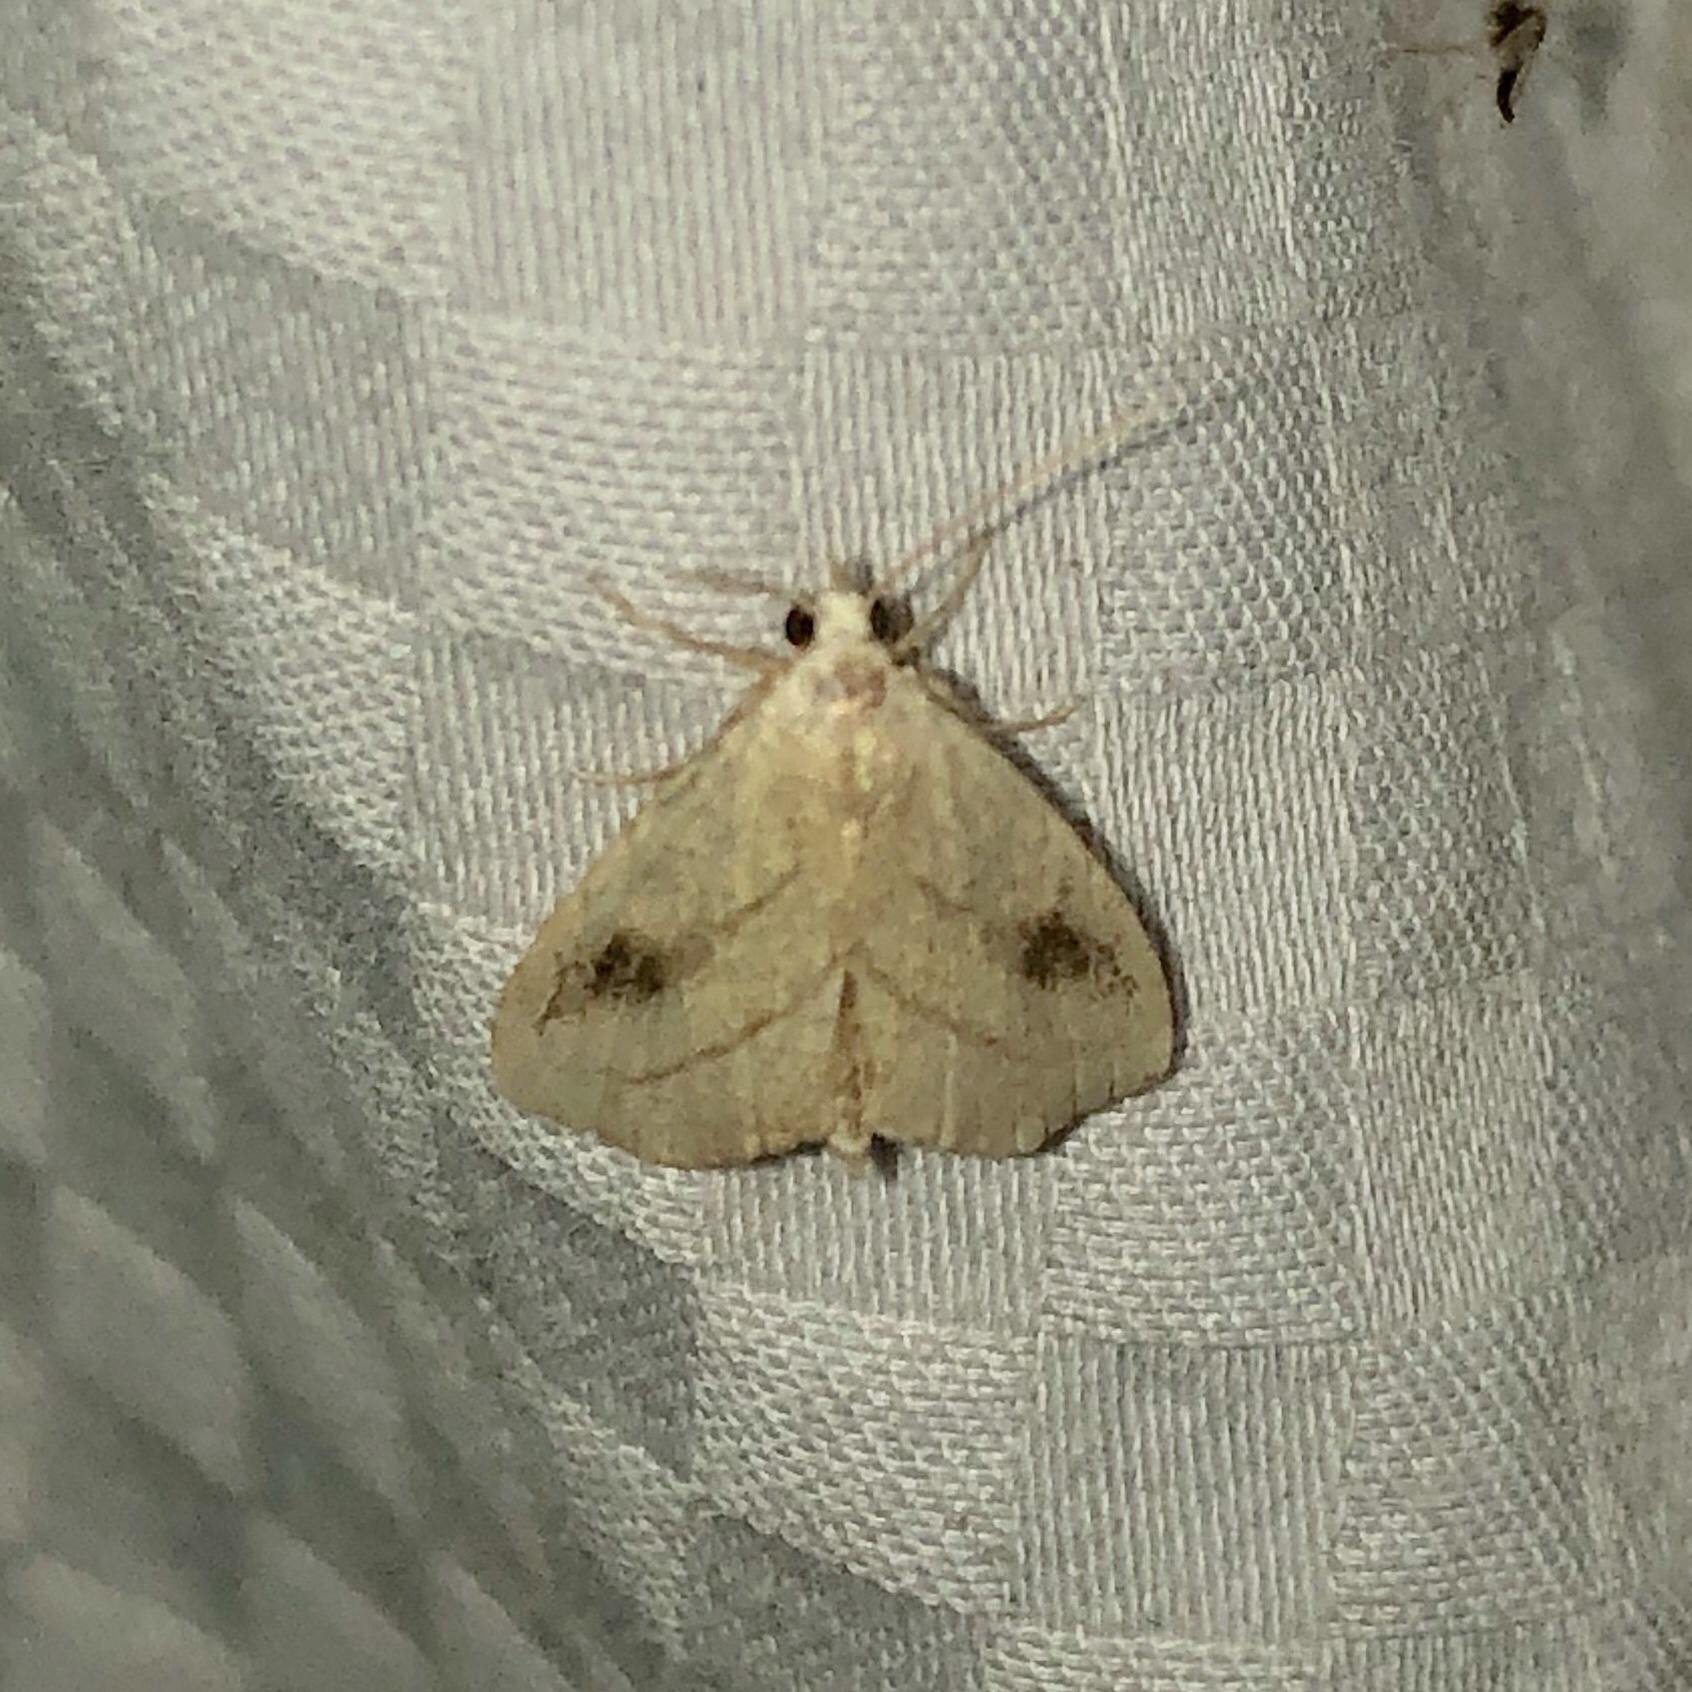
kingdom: Animalia
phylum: Arthropoda
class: Insecta
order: Lepidoptera
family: Erebidae
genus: Rivula
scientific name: Rivula propinqualis
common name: Spotted grass moth
